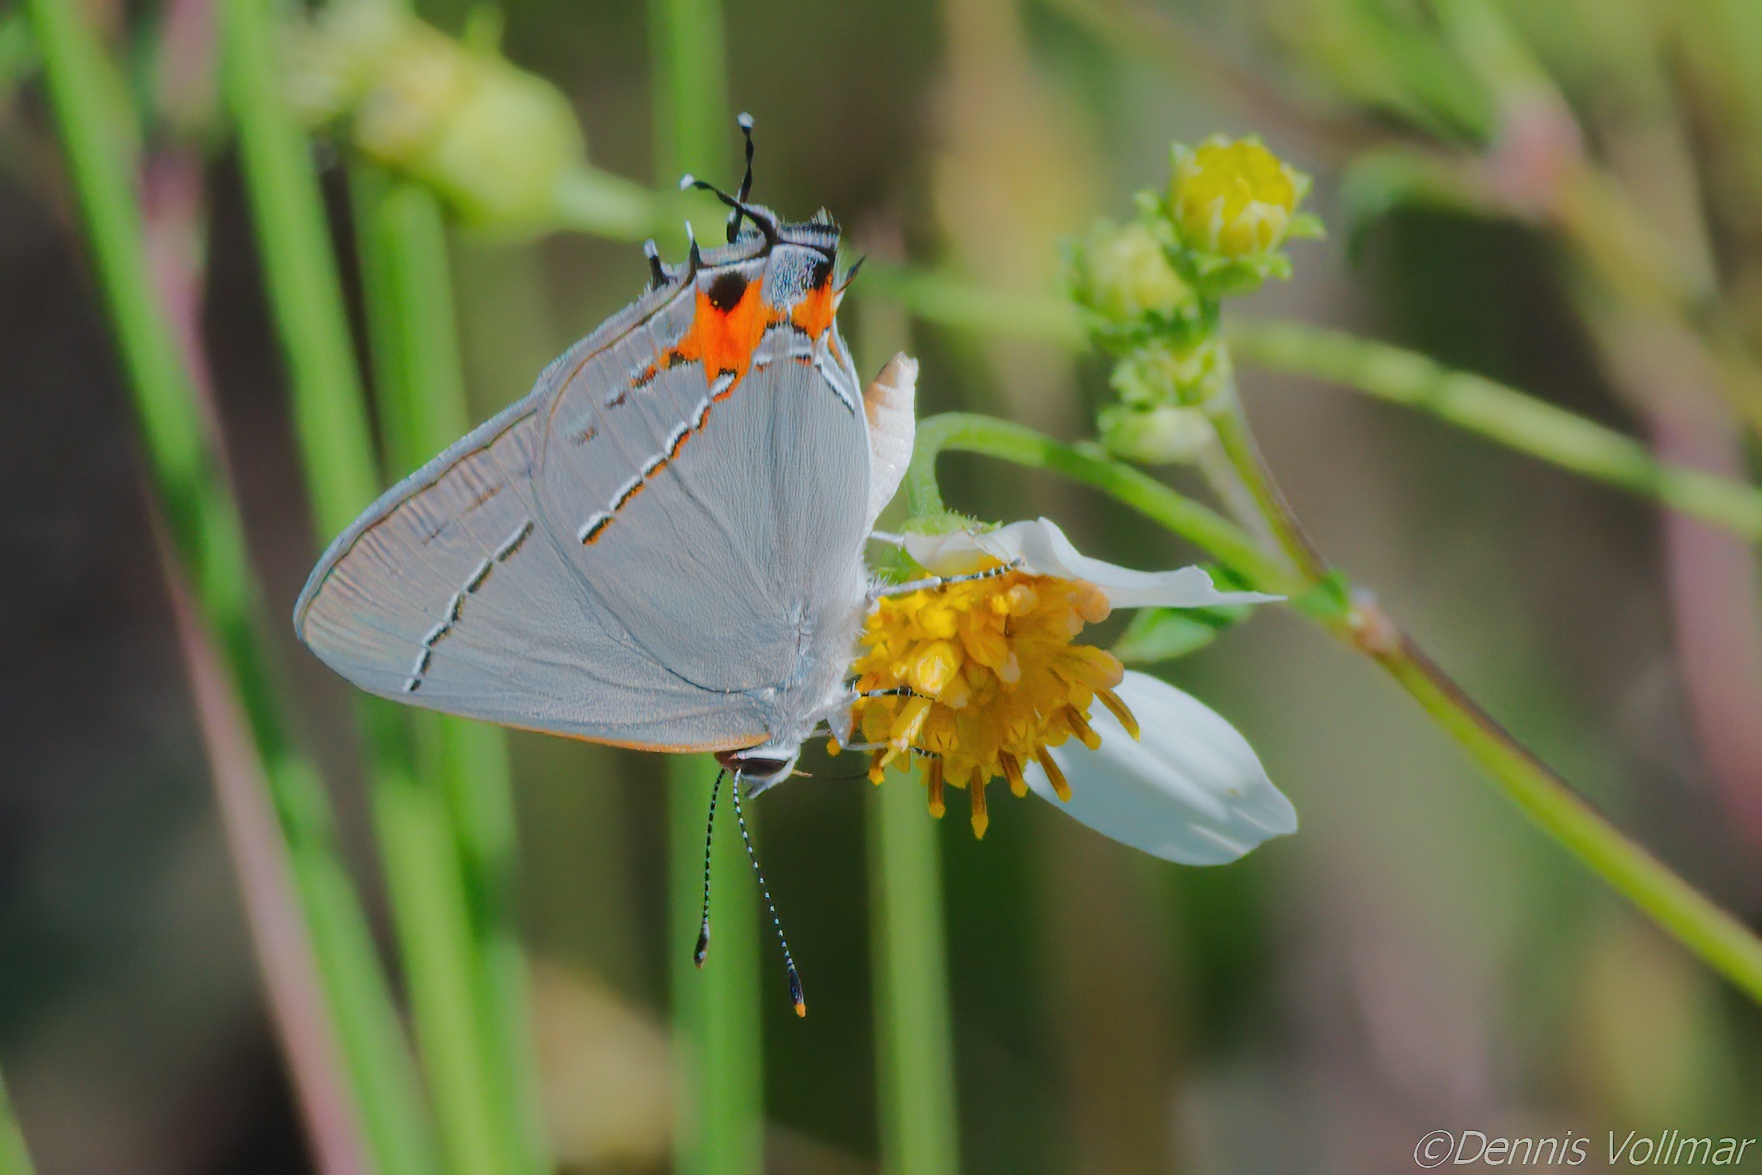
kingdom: Animalia
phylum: Arthropoda
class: Insecta
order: Lepidoptera
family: Lycaenidae
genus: Strymon
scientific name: Strymon melinus
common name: Gray hairstreak
